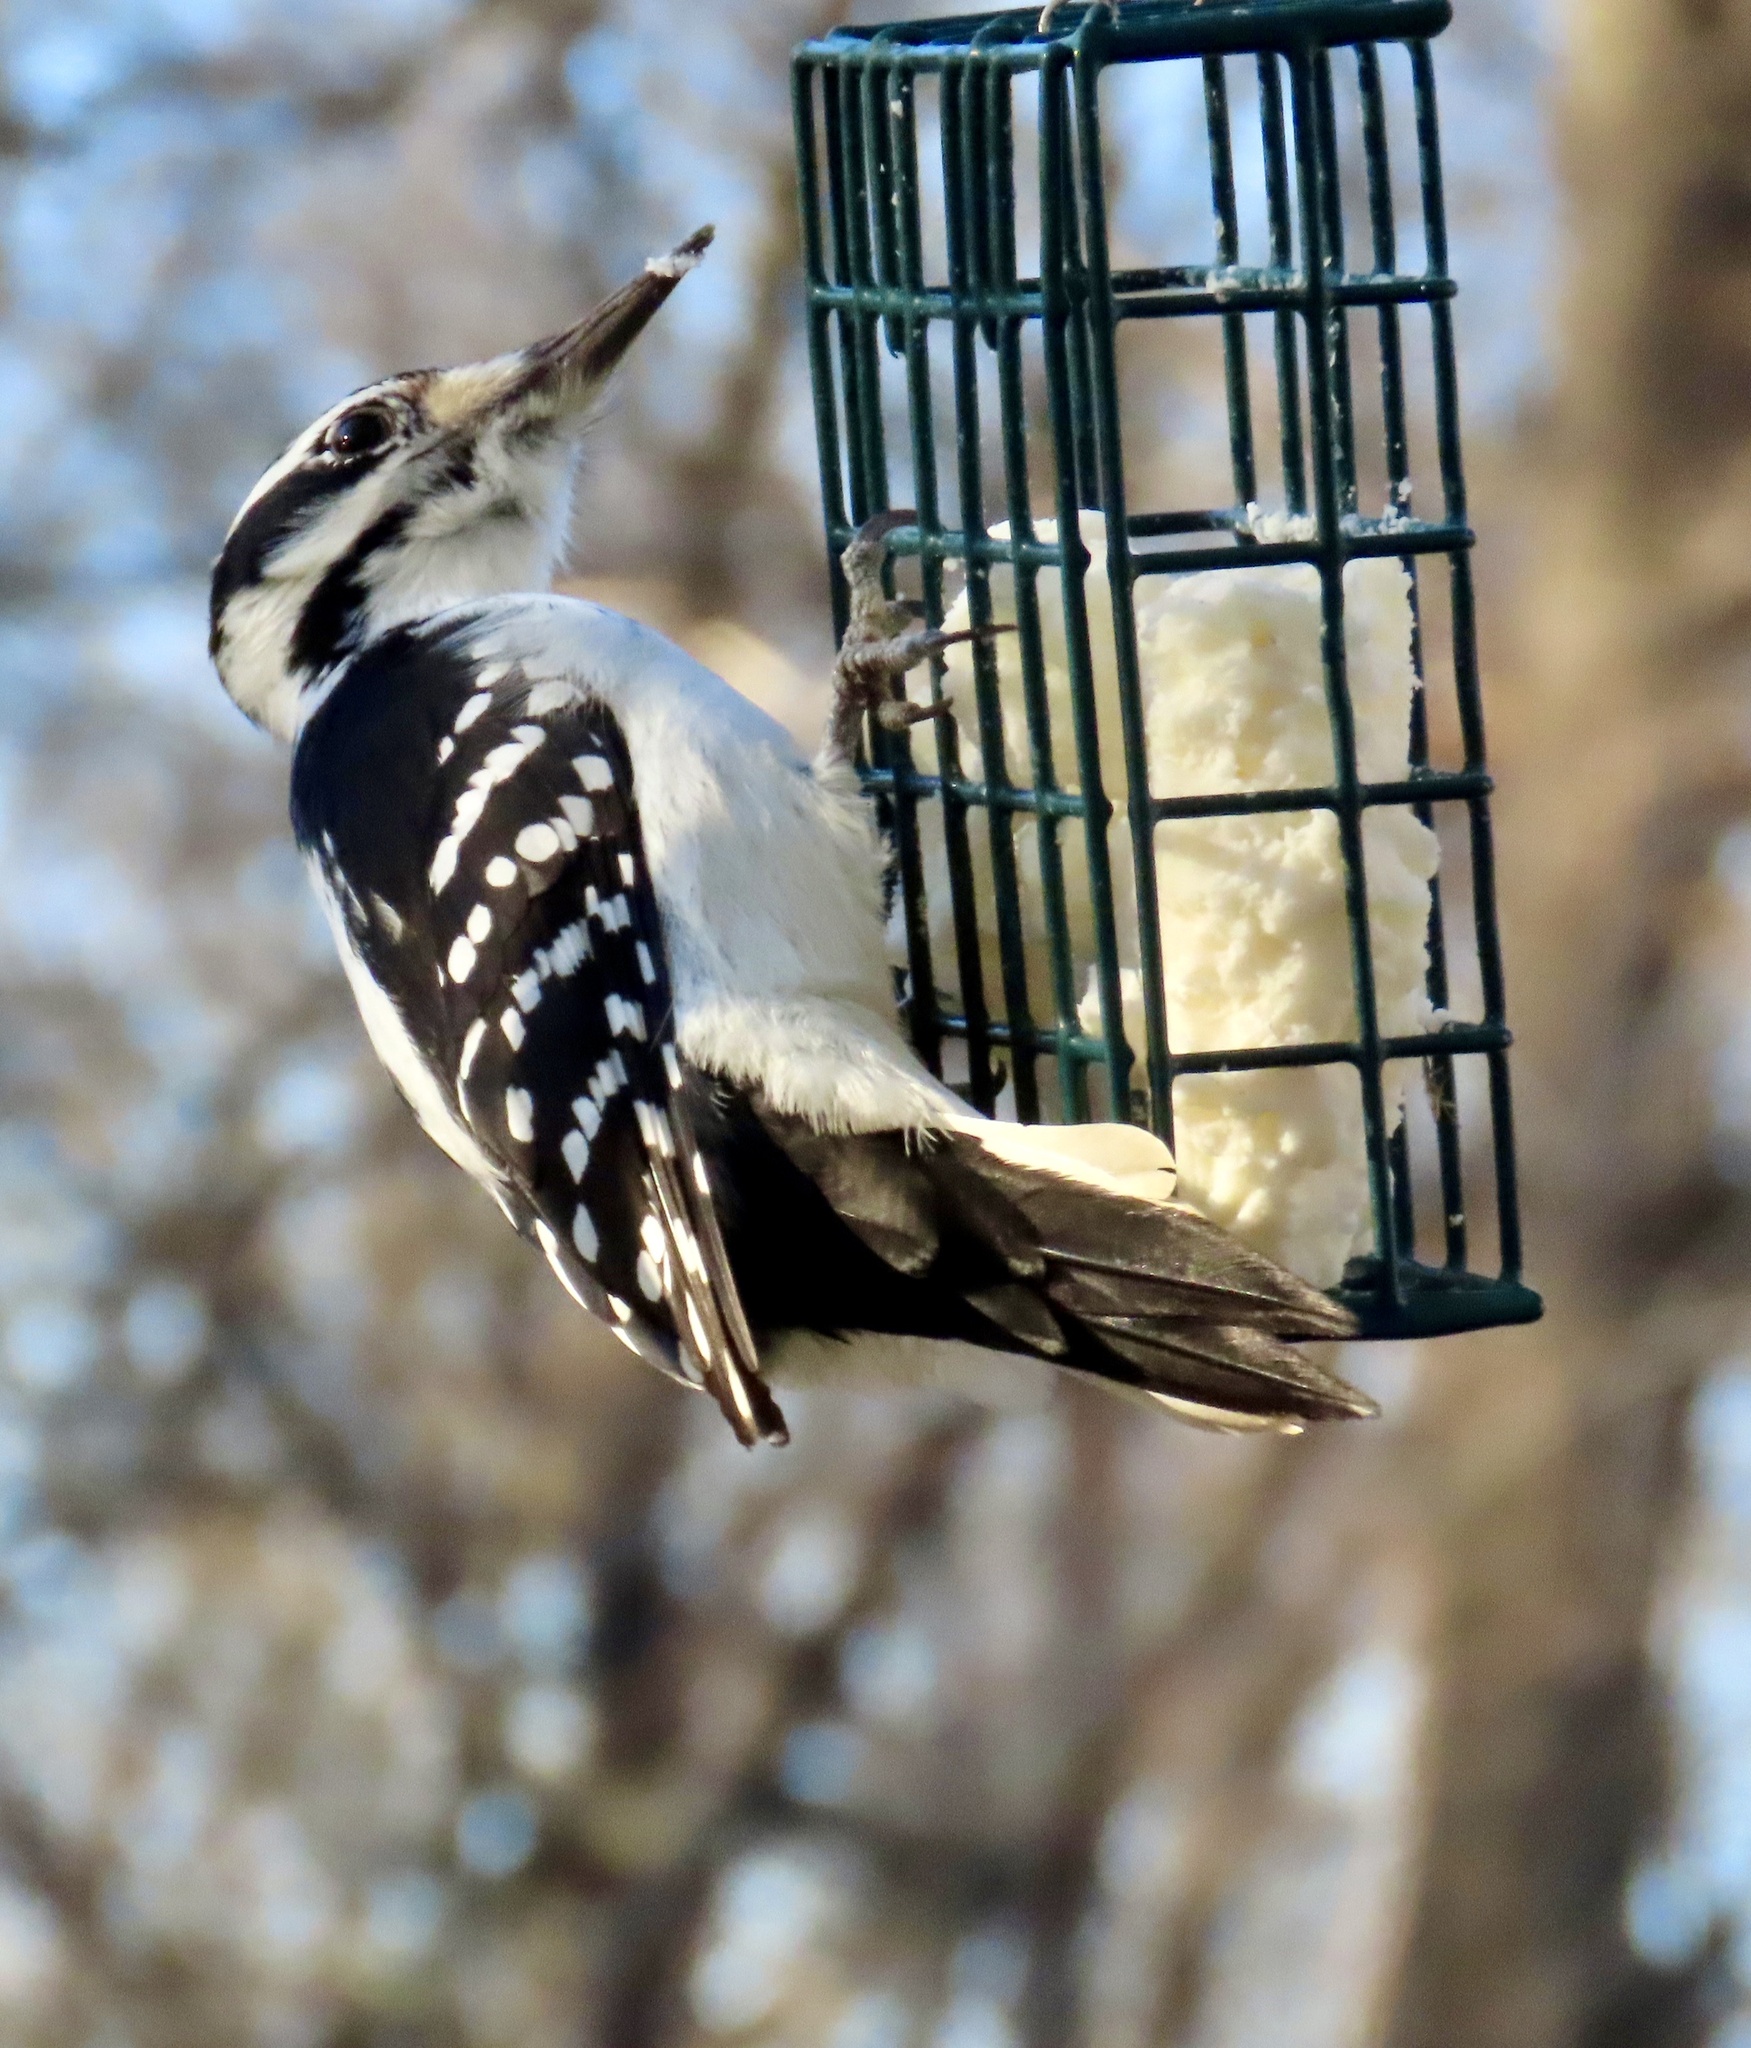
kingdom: Animalia
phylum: Chordata
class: Aves
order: Piciformes
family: Picidae
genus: Leuconotopicus
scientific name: Leuconotopicus villosus
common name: Hairy woodpecker
